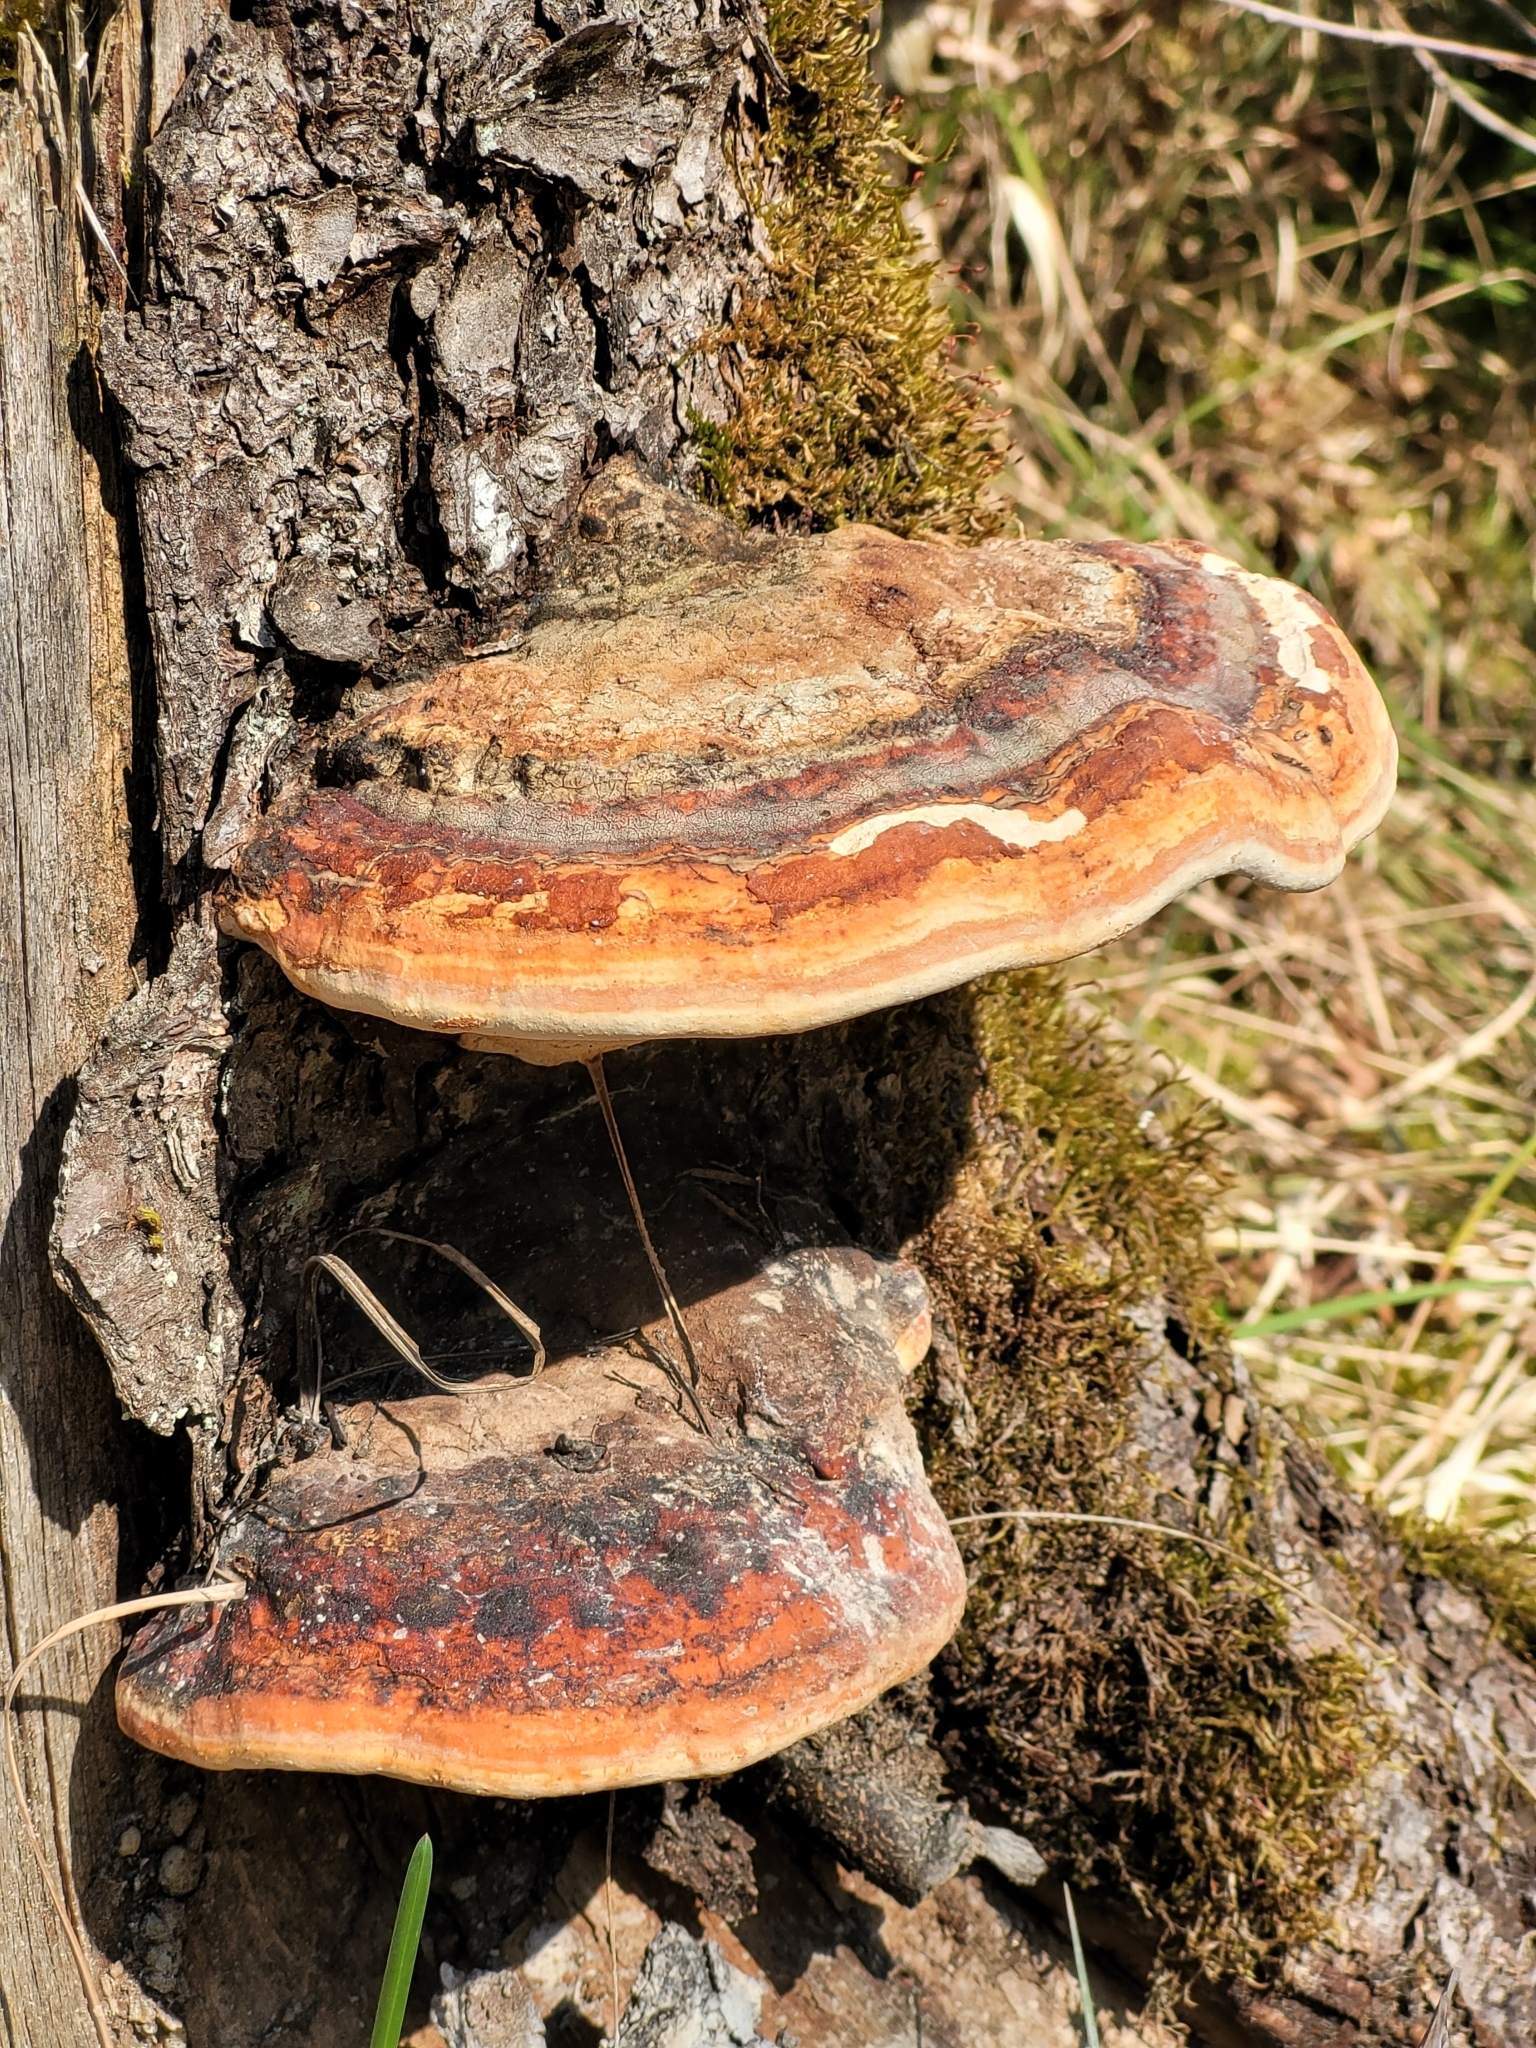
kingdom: Fungi
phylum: Basidiomycota
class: Agaricomycetes
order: Polyporales
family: Fomitopsidaceae
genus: Fomitopsis
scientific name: Fomitopsis pinicola
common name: Red-belted bracket
